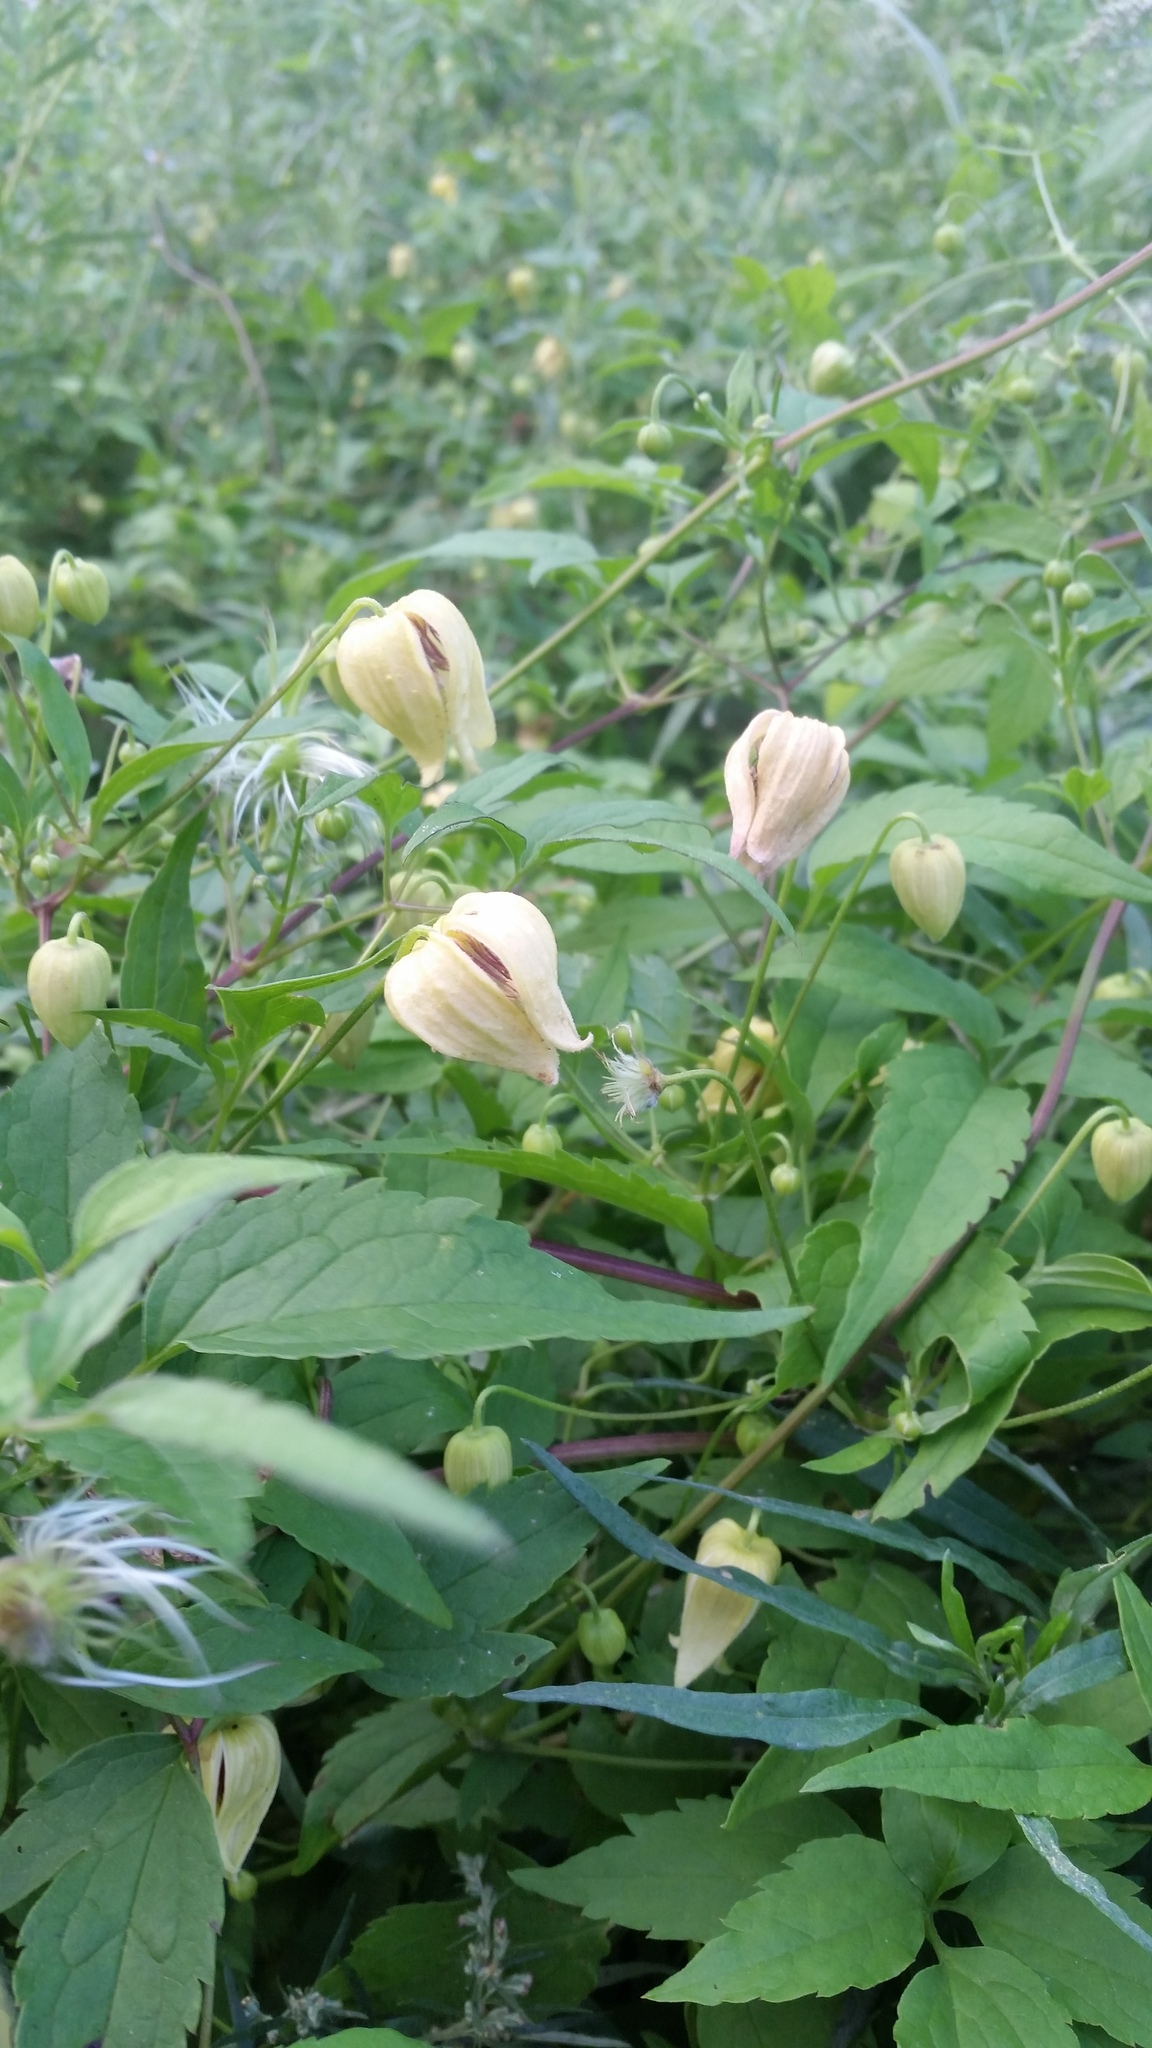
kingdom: Plantae
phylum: Tracheophyta
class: Magnoliopsida
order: Ranunculales
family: Ranunculaceae
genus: Clematis
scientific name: Clematis serratifolia
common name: Korean clematis
